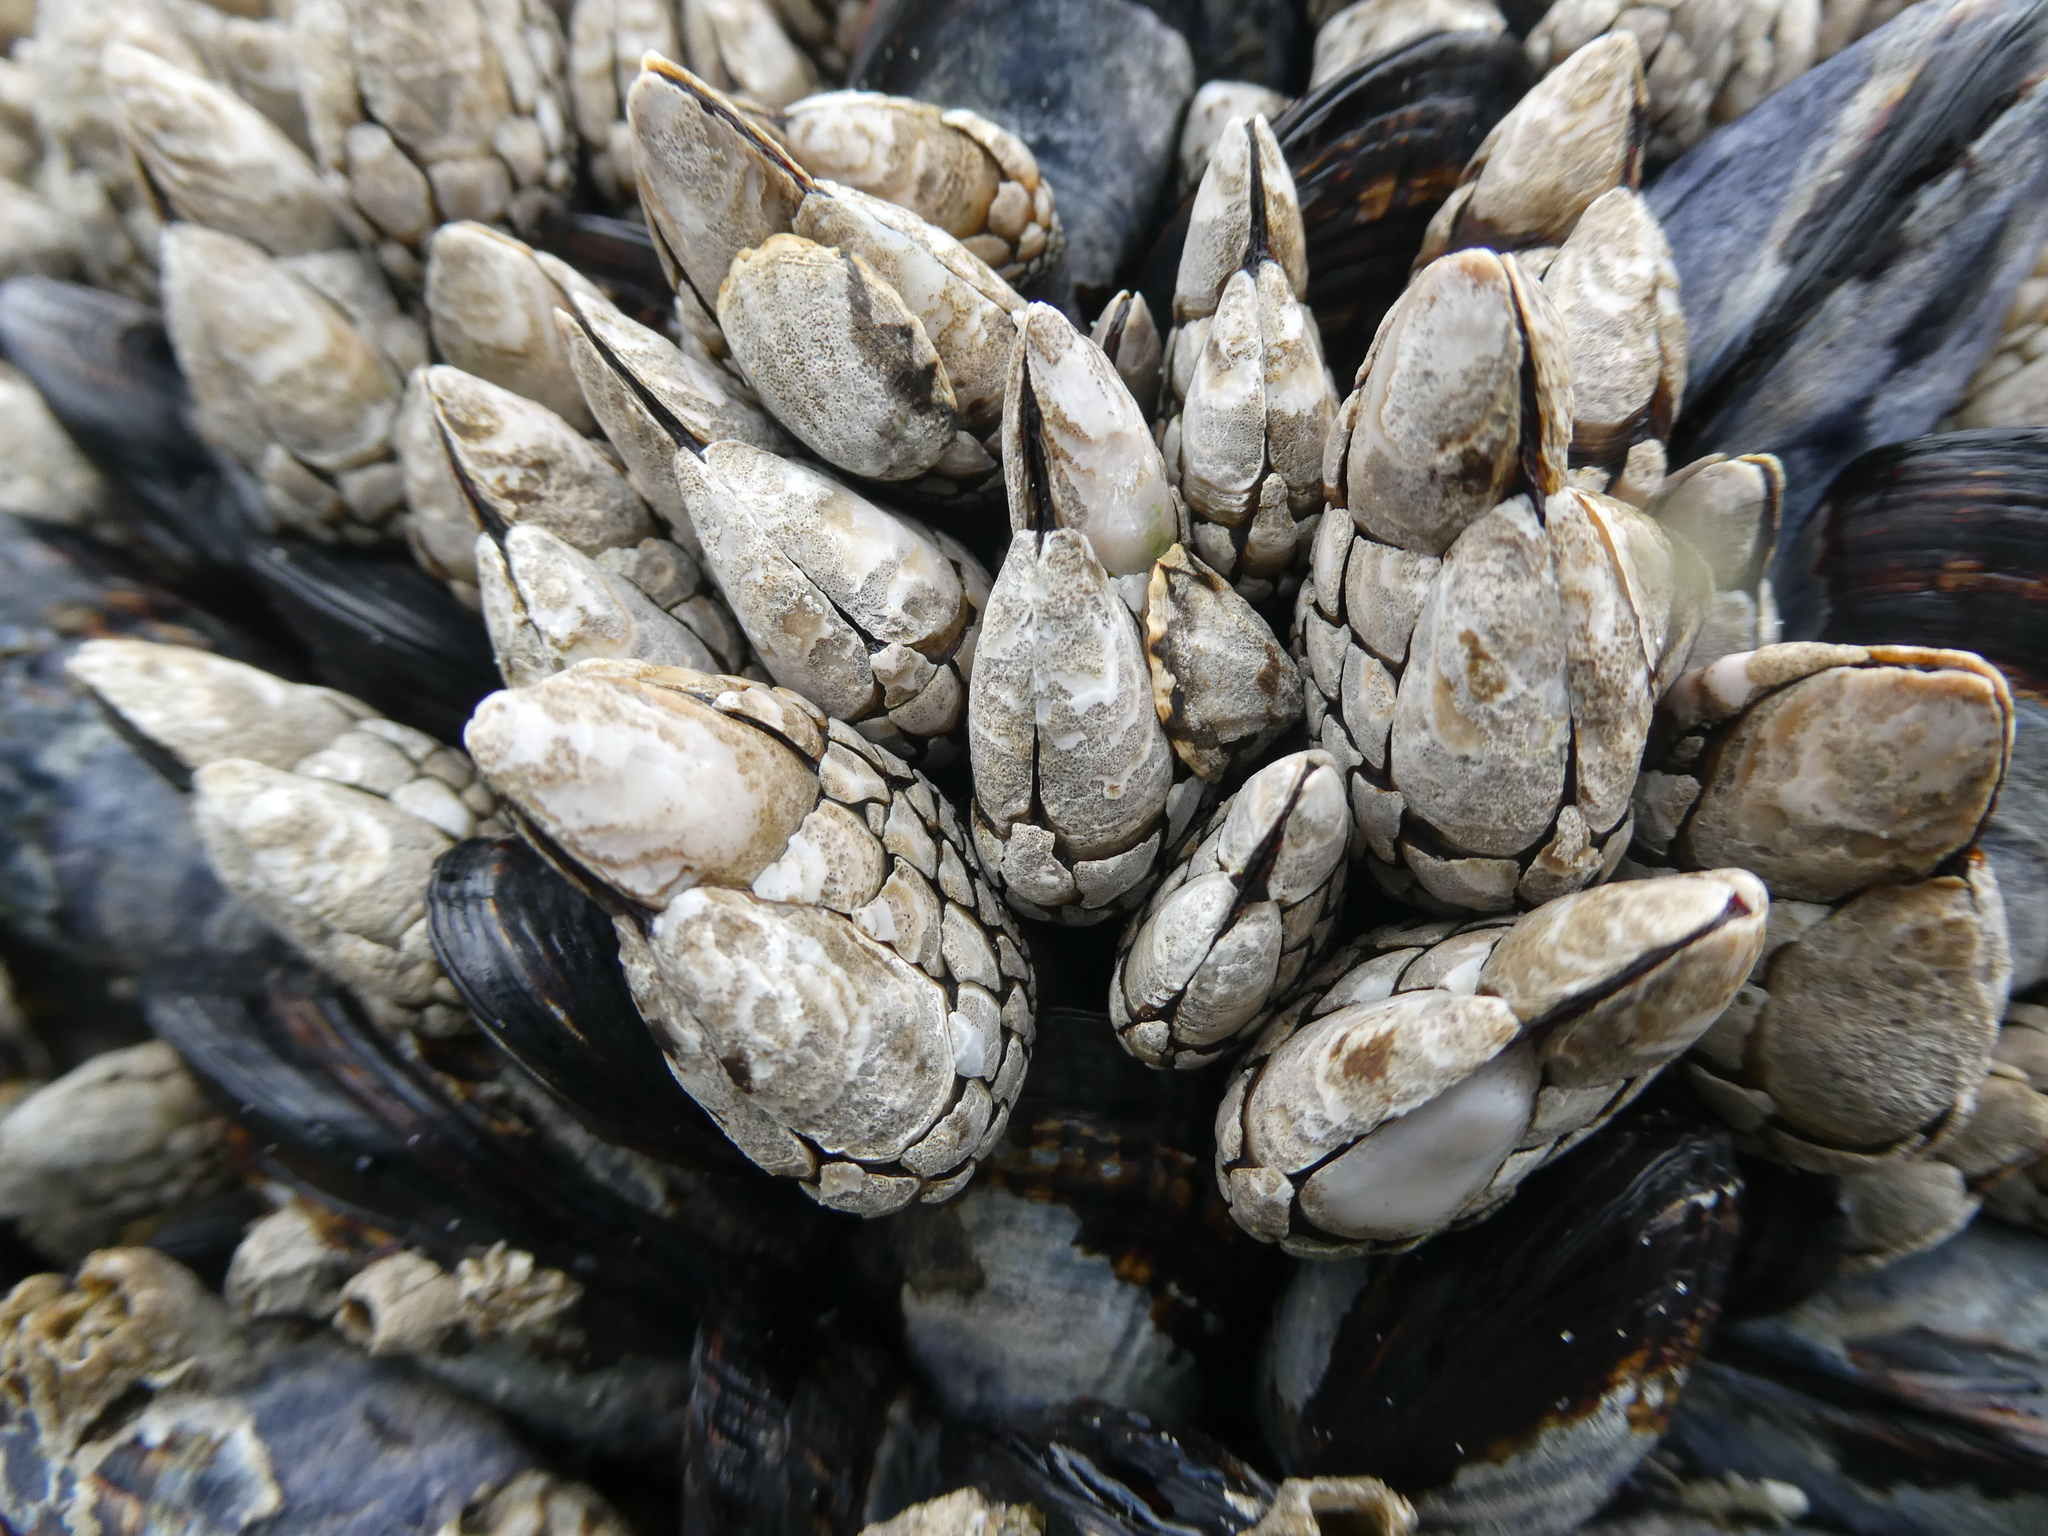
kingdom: Animalia
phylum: Arthropoda
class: Maxillopoda
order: Pedunculata
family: Pollicipedidae
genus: Pollicipes
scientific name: Pollicipes polymerus
